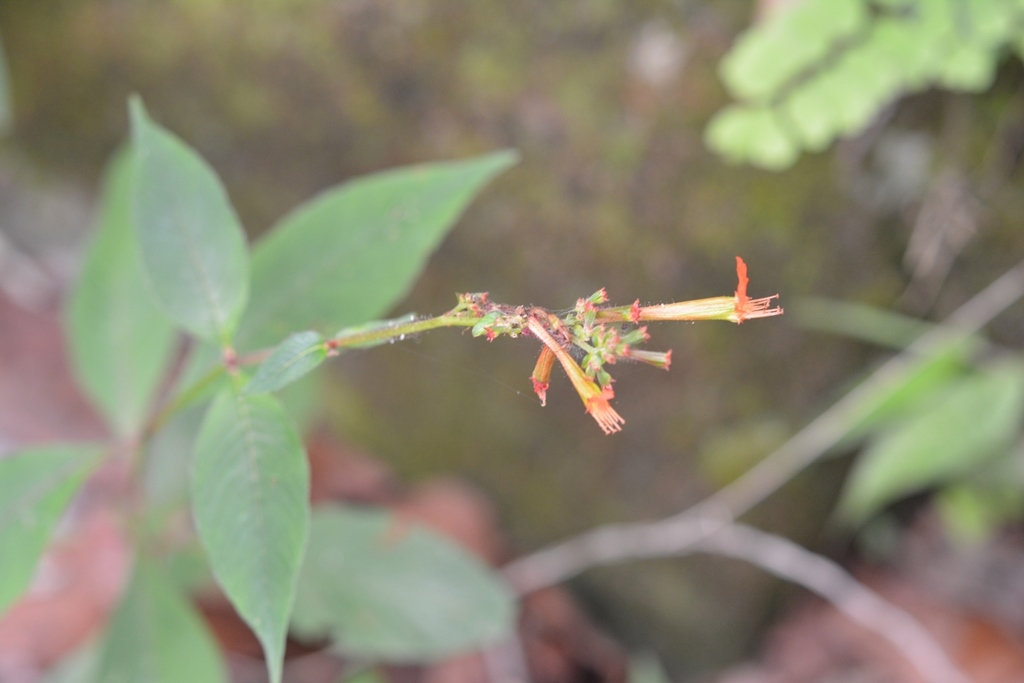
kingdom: Plantae
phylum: Tracheophyta
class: Magnoliopsida
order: Myrtales
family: Lythraceae
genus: Cuphea
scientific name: Cuphea appendiculata
